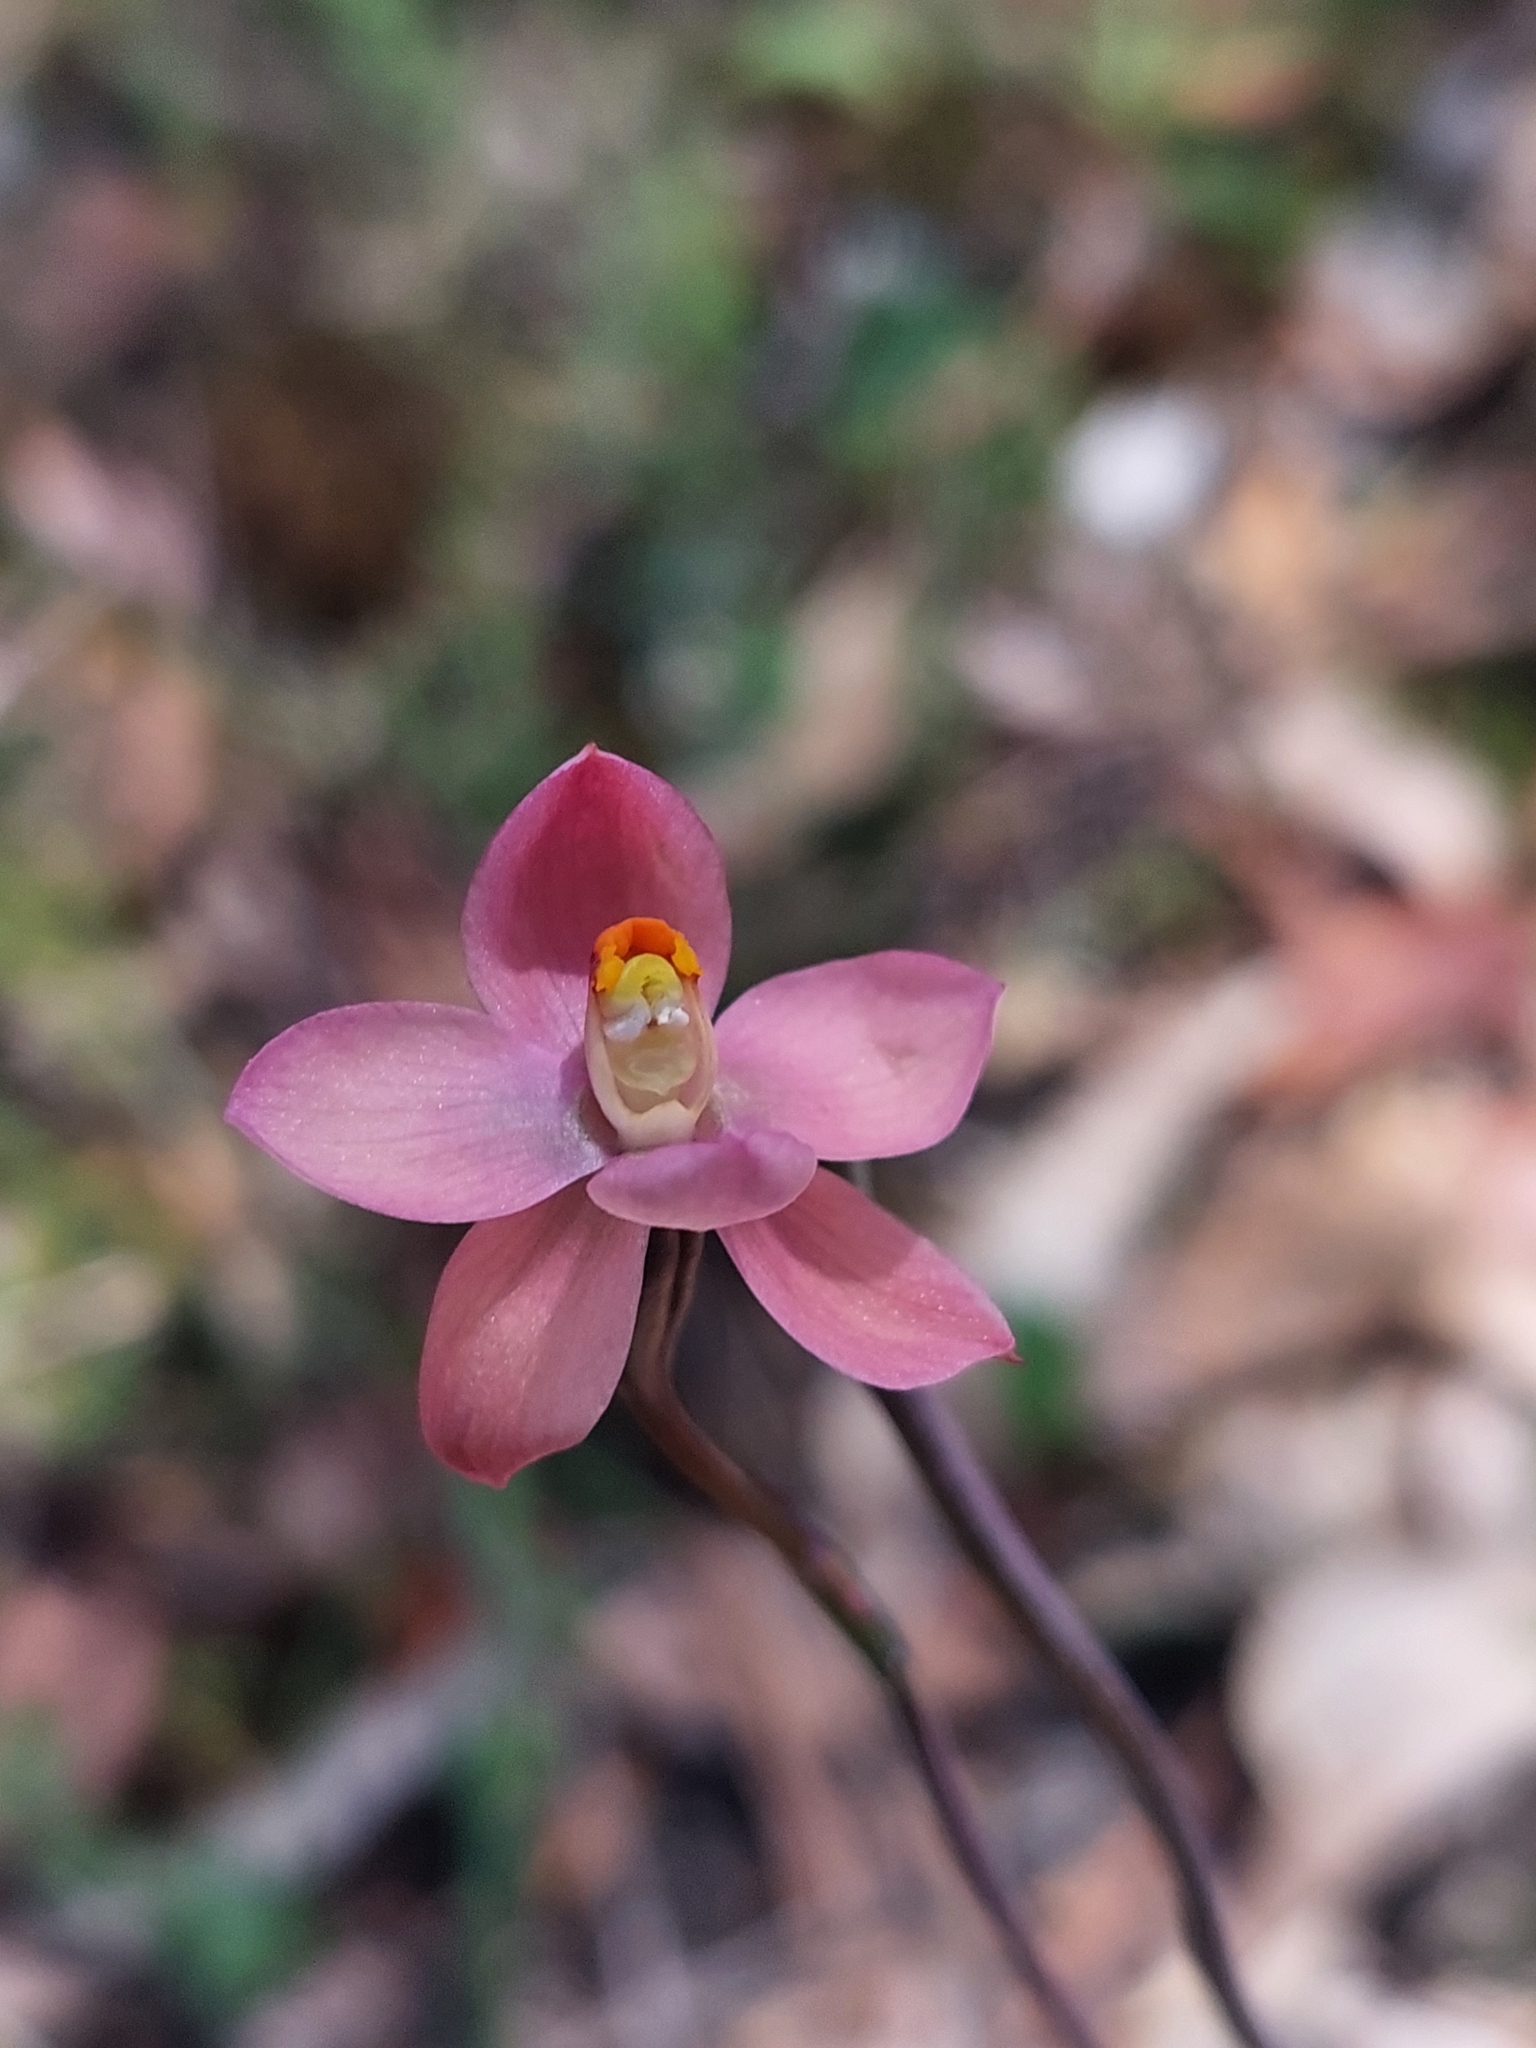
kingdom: Plantae
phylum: Tracheophyta
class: Liliopsida
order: Asparagales
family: Orchidaceae
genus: Thelymitra
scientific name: Thelymitra rubra
